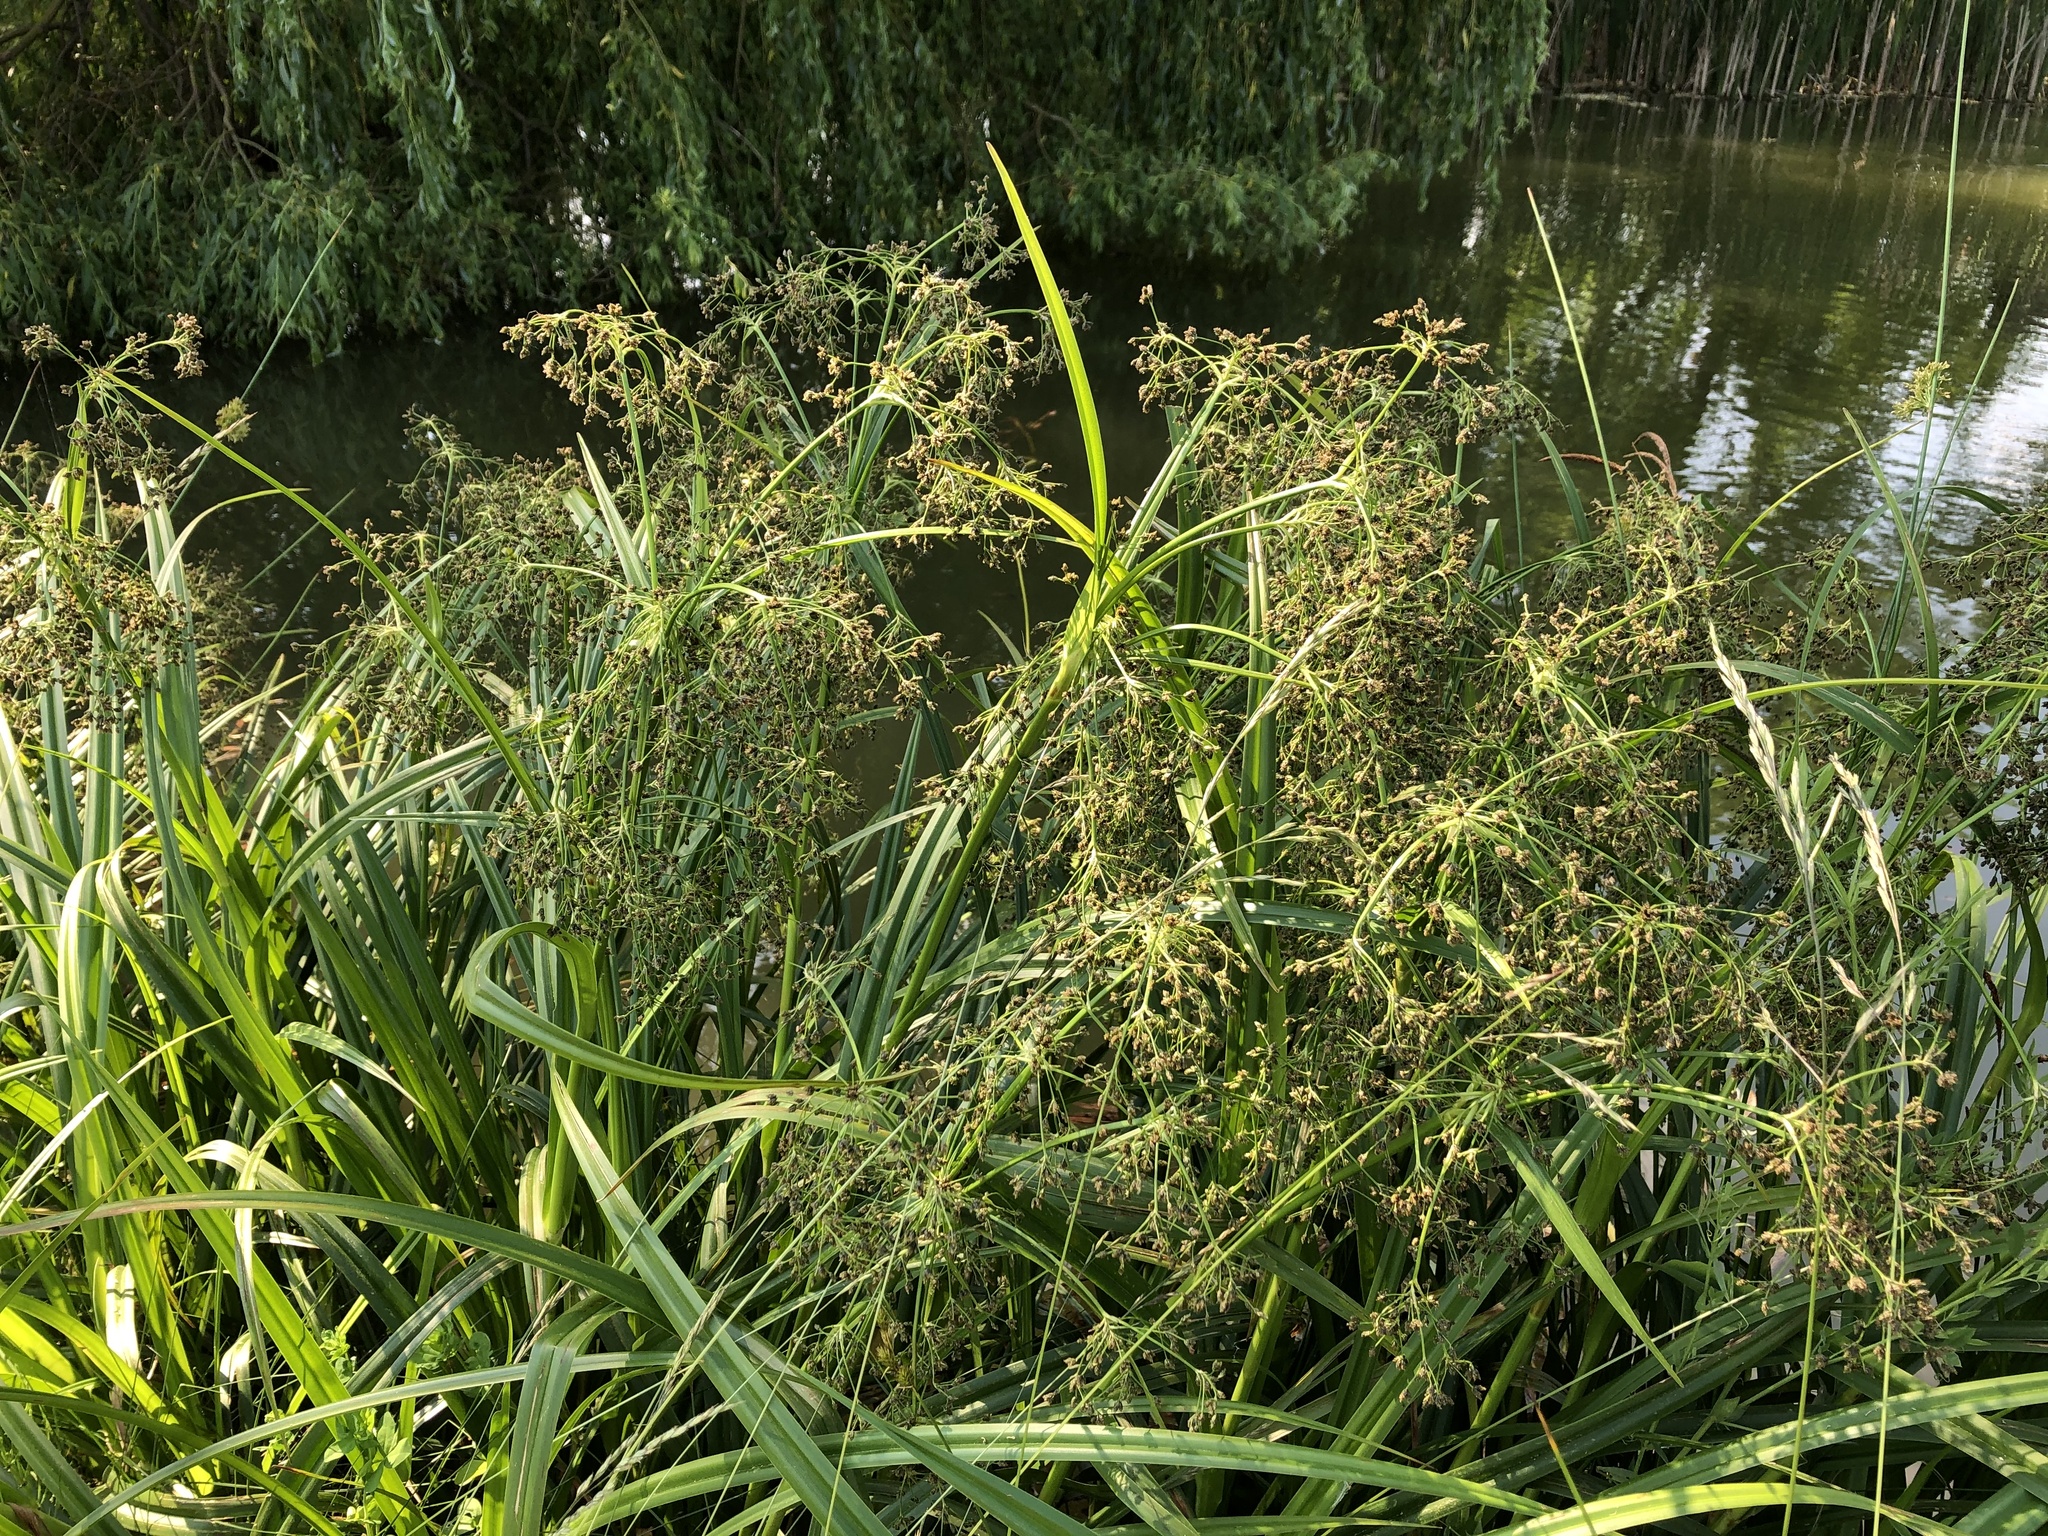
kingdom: Plantae
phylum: Tracheophyta
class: Liliopsida
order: Poales
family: Cyperaceae
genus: Scirpus
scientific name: Scirpus sylvaticus
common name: Wood club-rush
